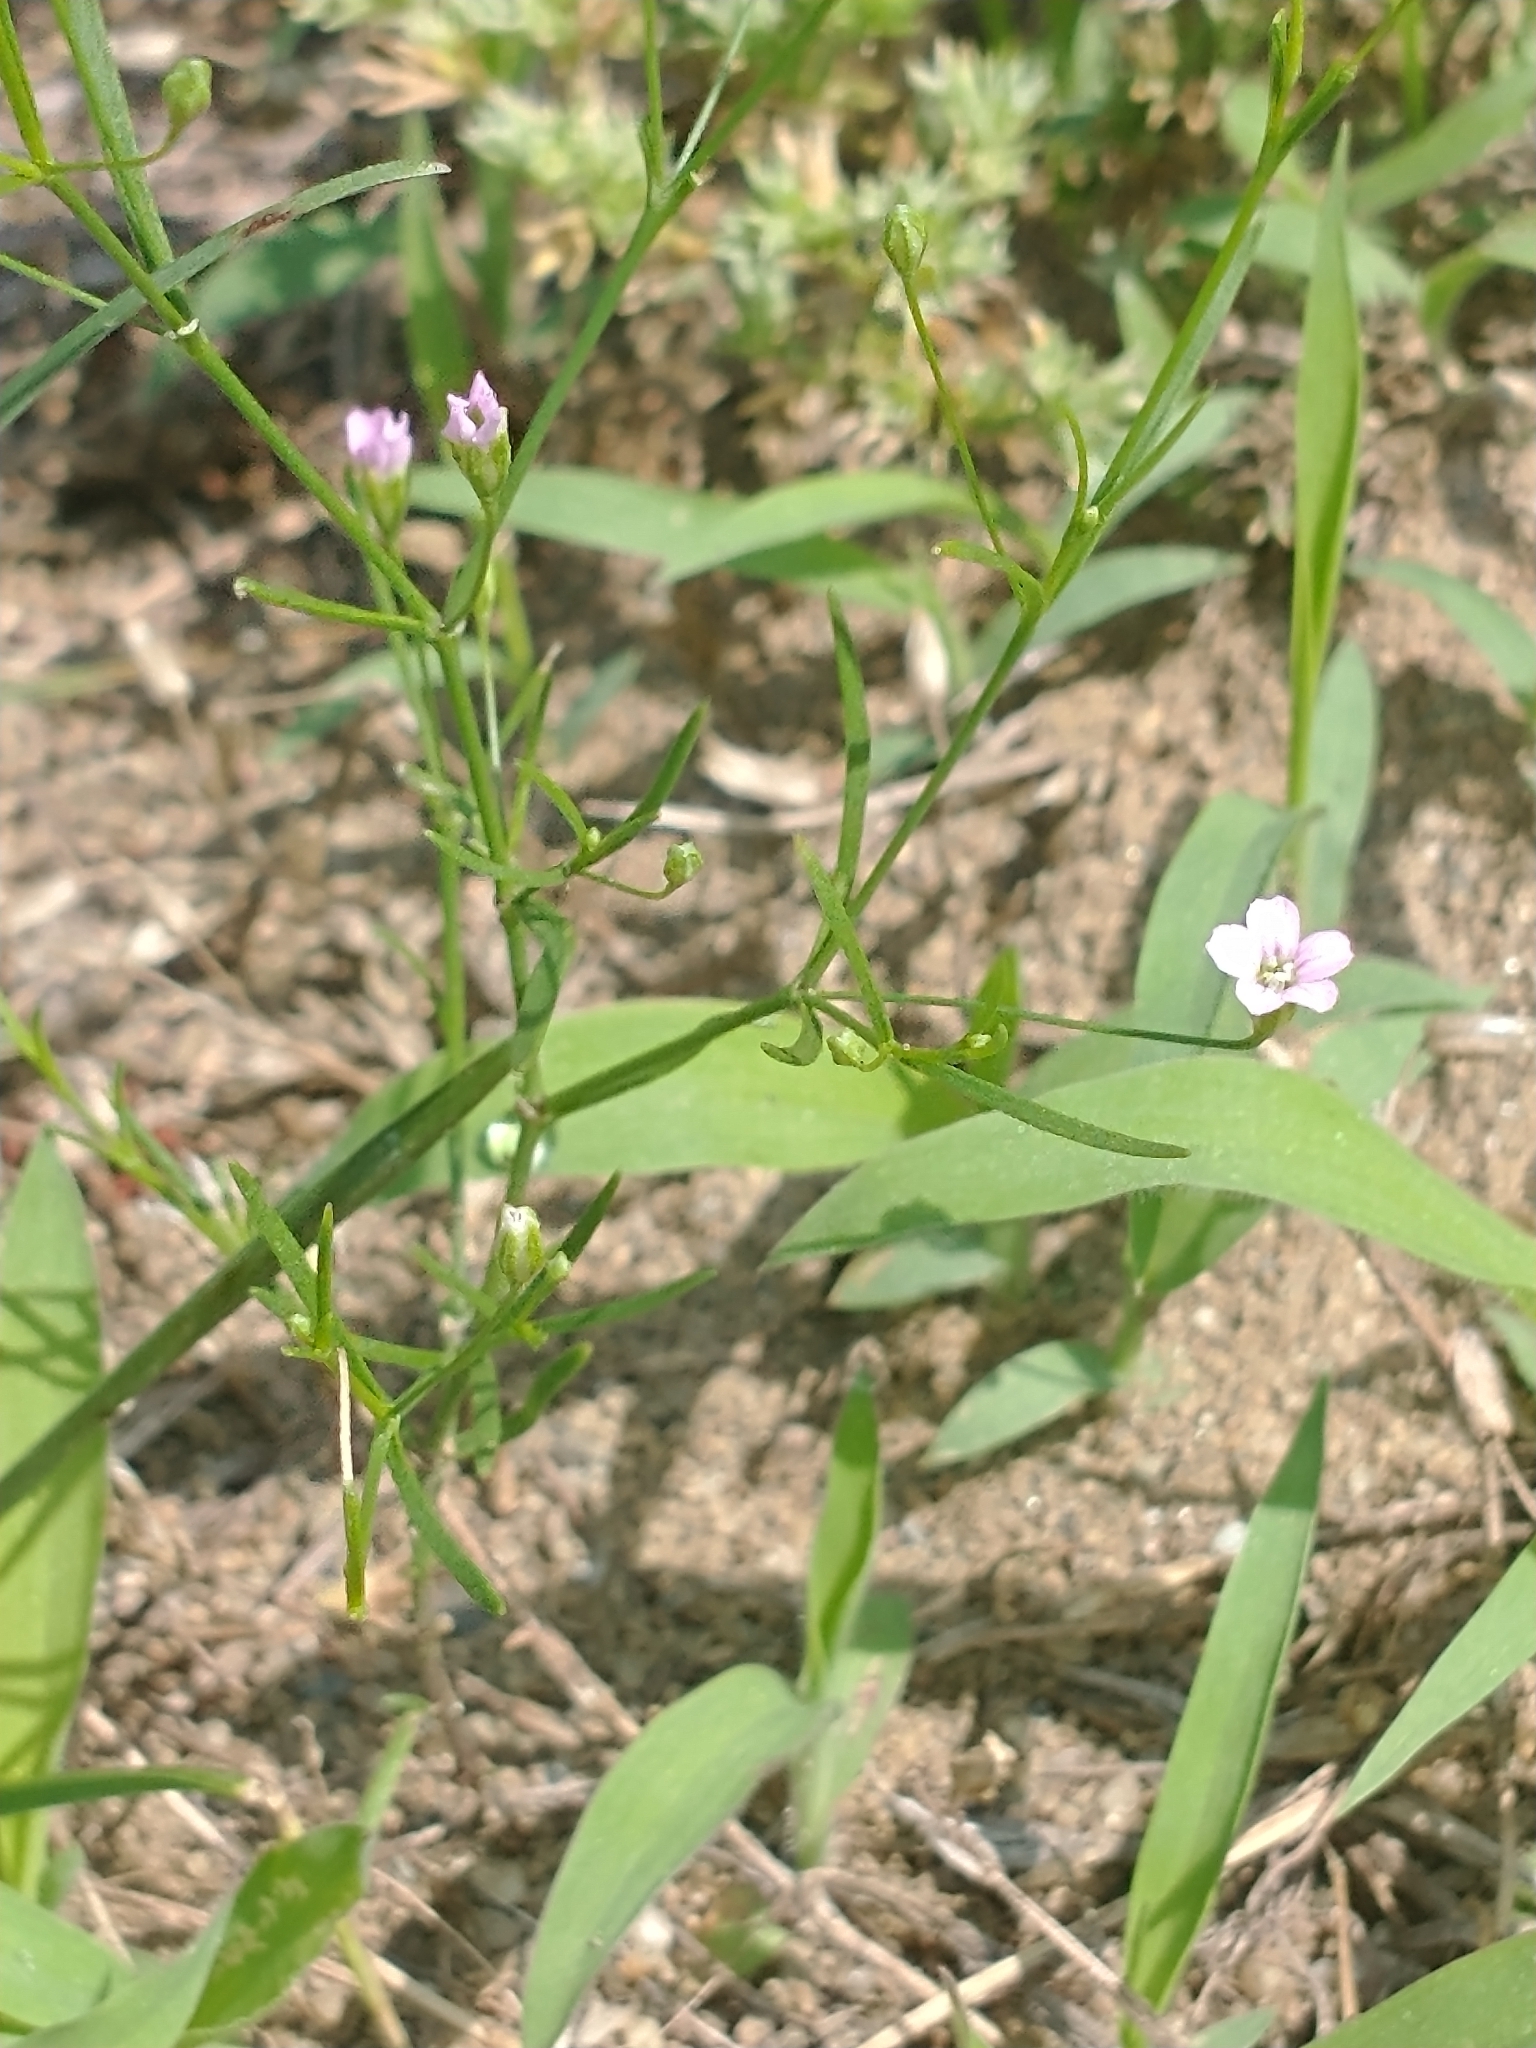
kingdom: Plantae
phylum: Tracheophyta
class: Magnoliopsida
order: Caryophyllales
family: Caryophyllaceae
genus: Psammophiliella
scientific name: Psammophiliella muralis
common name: Cushion baby's-breath
